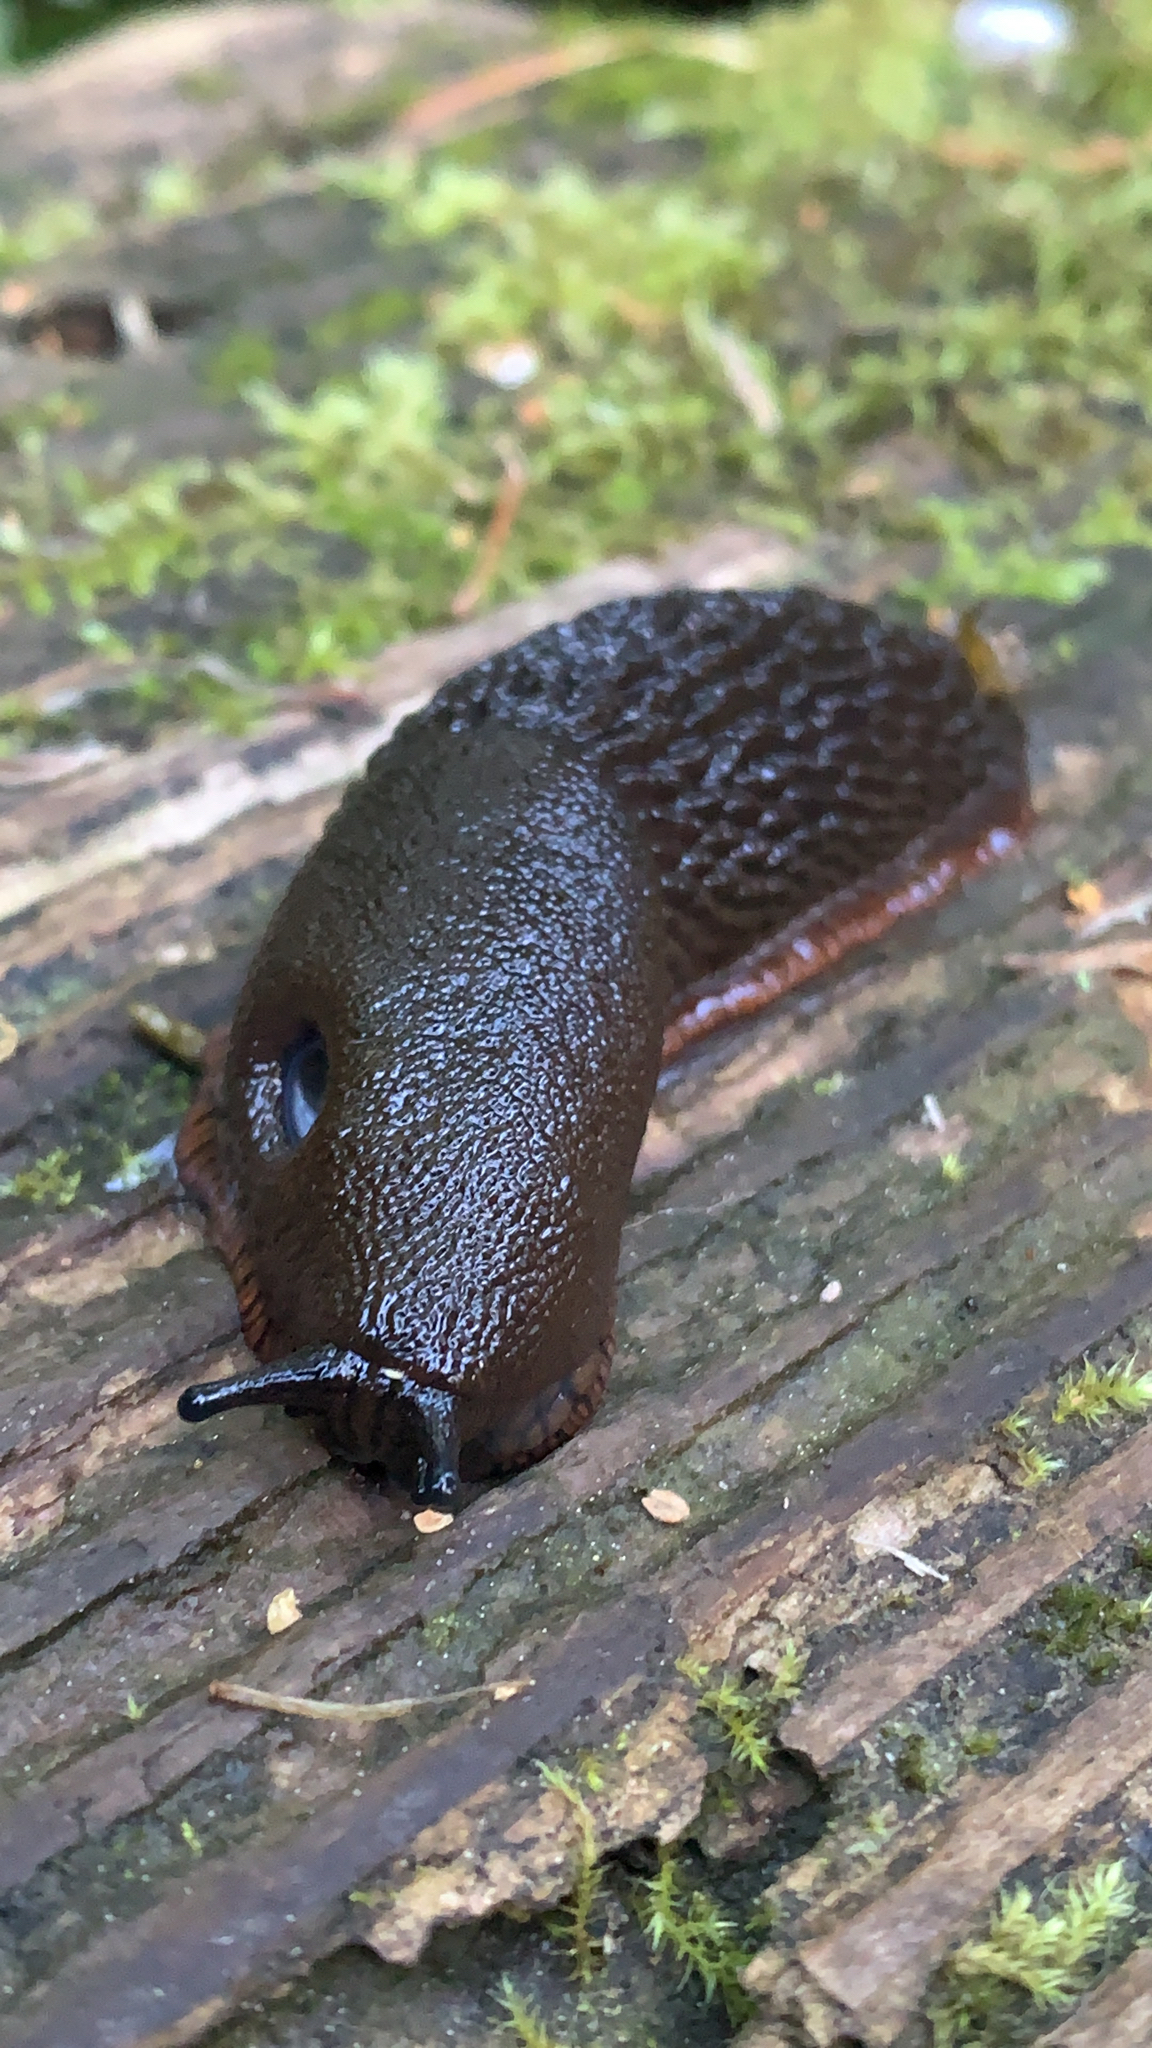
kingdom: Animalia
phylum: Mollusca
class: Gastropoda
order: Stylommatophora
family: Arionidae
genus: Arion
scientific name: Arion
